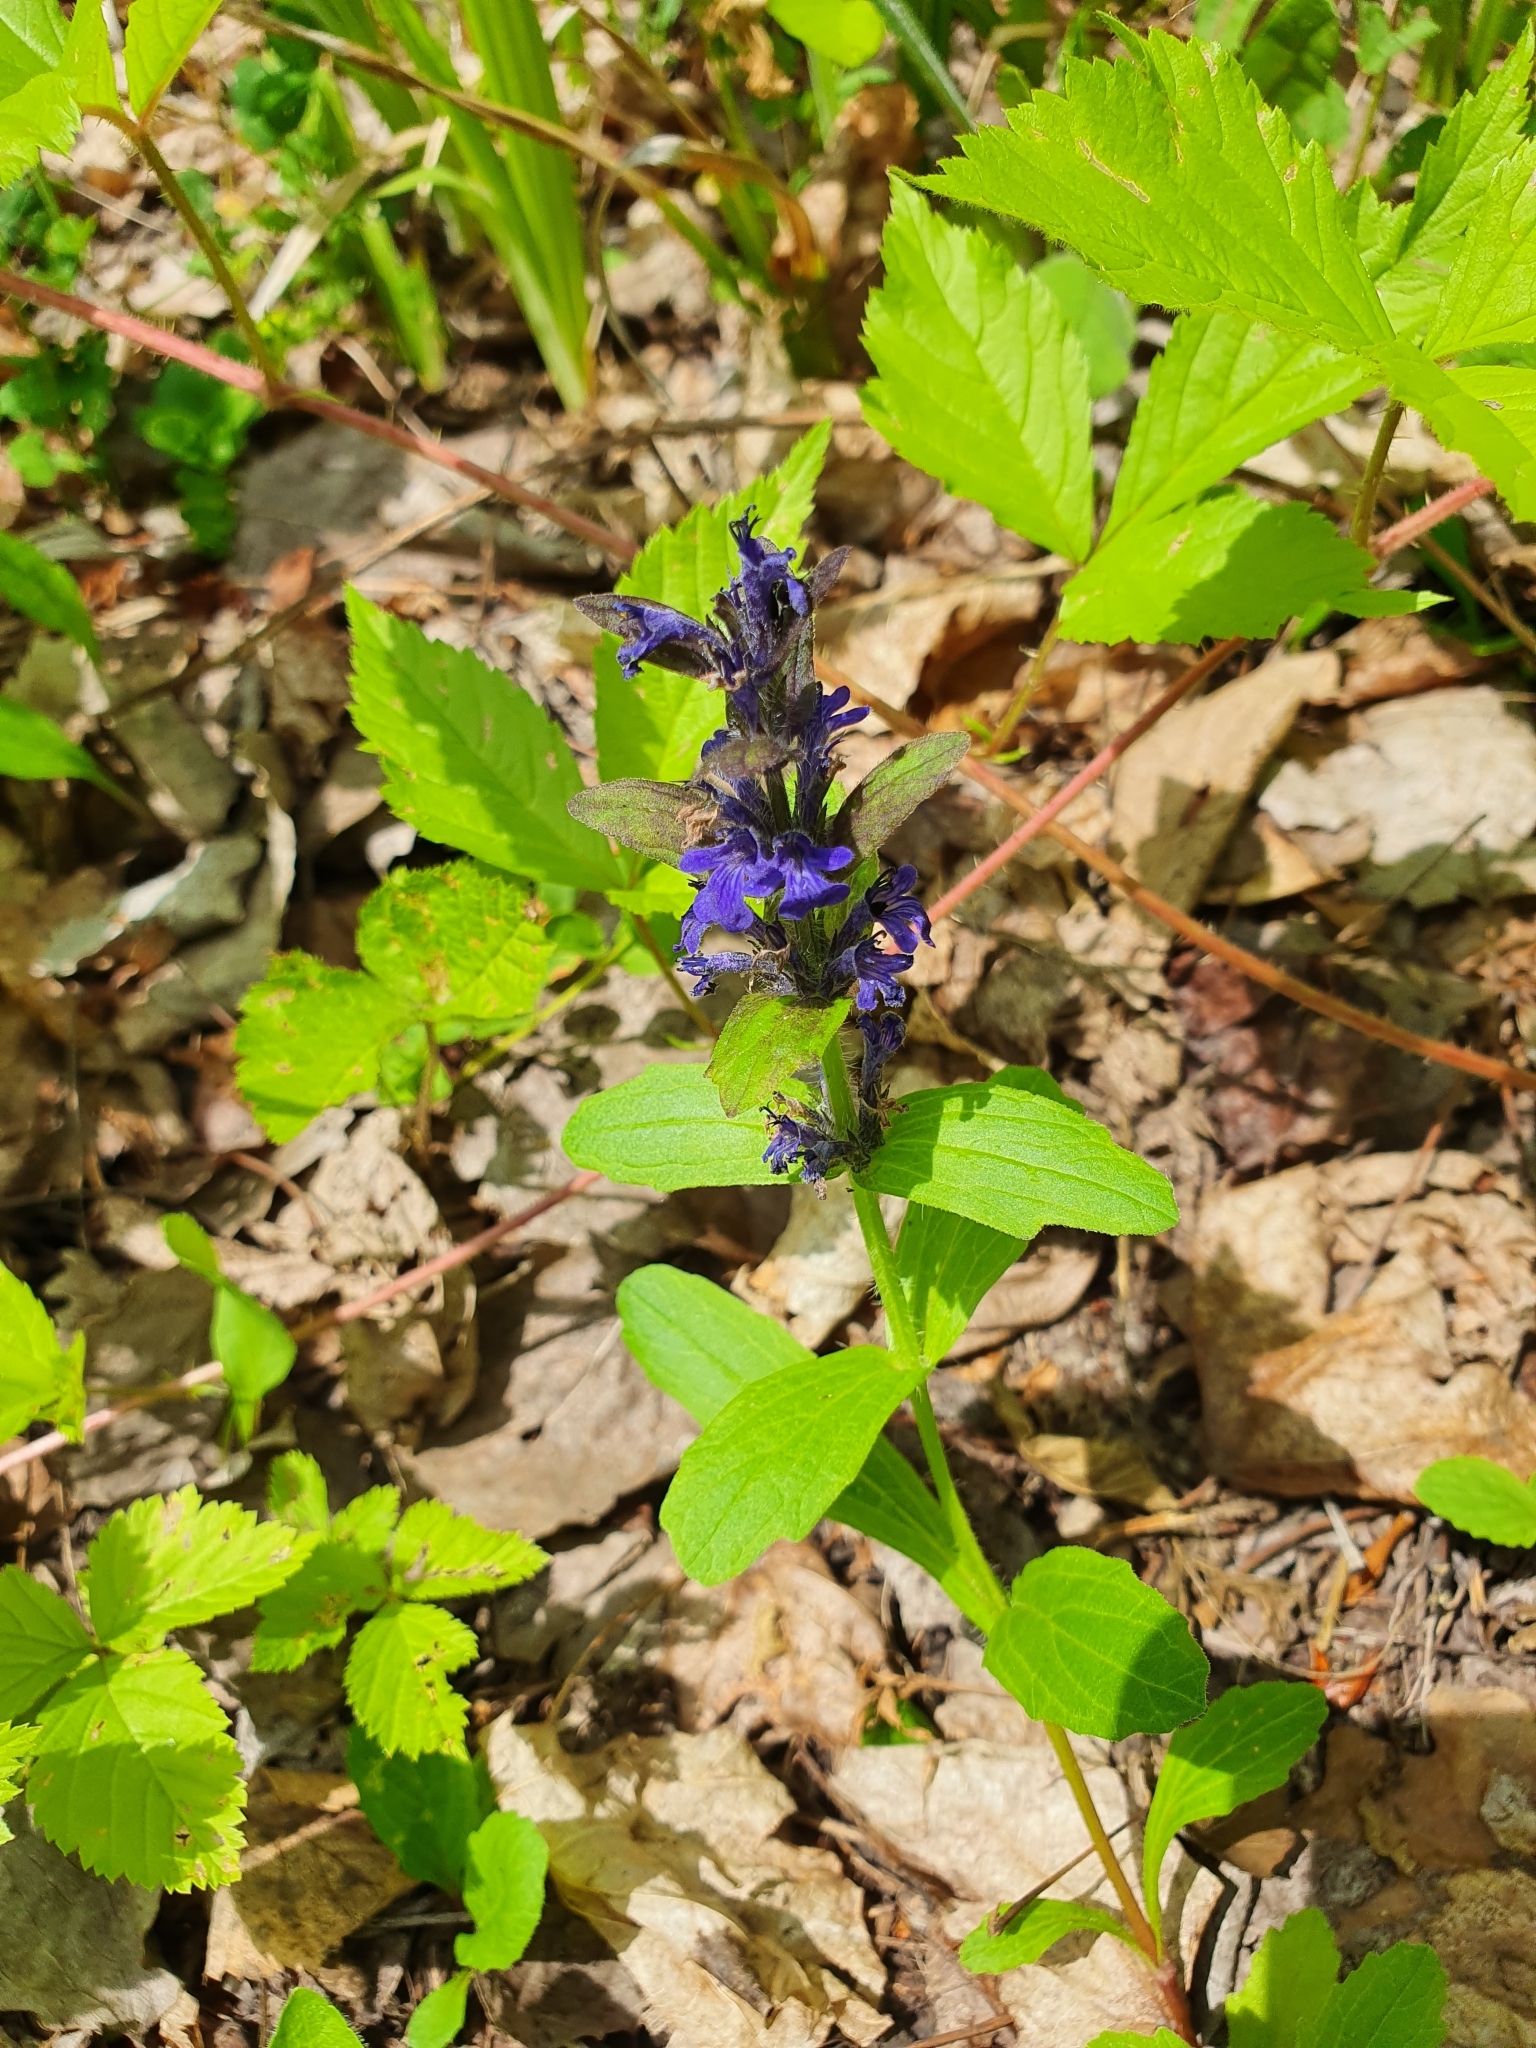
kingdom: Plantae
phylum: Tracheophyta
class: Magnoliopsida
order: Lamiales
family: Lamiaceae
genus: Ajuga
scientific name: Ajuga genevensis
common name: Blue bugle
